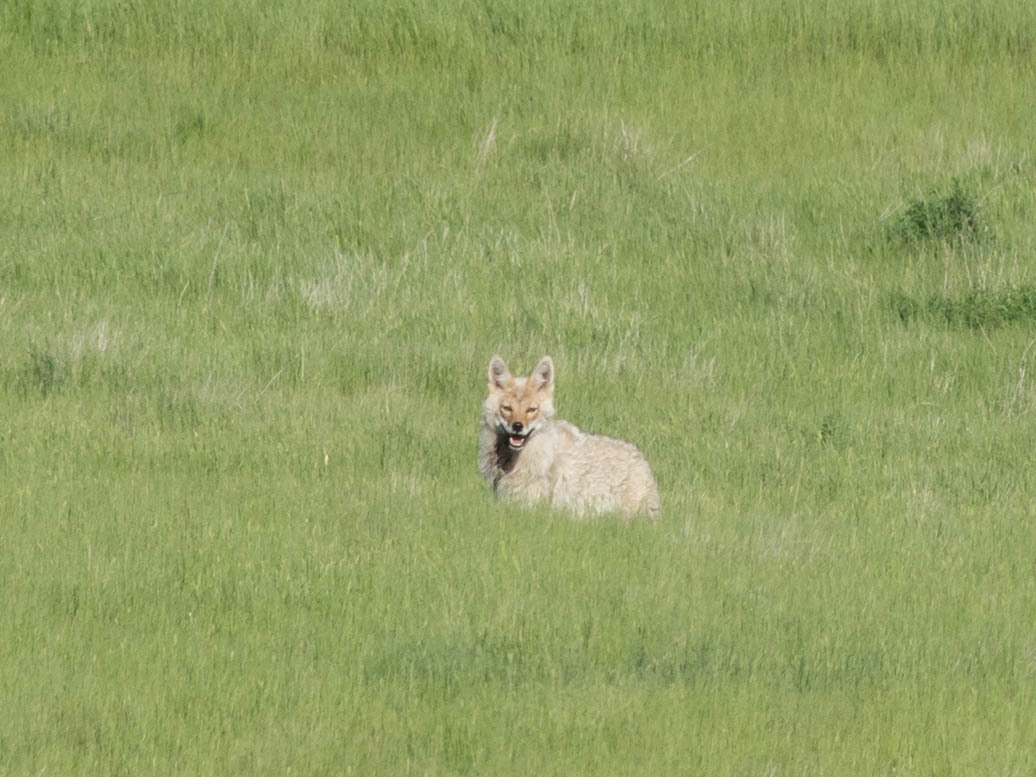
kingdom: Animalia
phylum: Chordata
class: Mammalia
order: Carnivora
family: Canidae
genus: Canis
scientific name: Canis latrans
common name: Coyote
